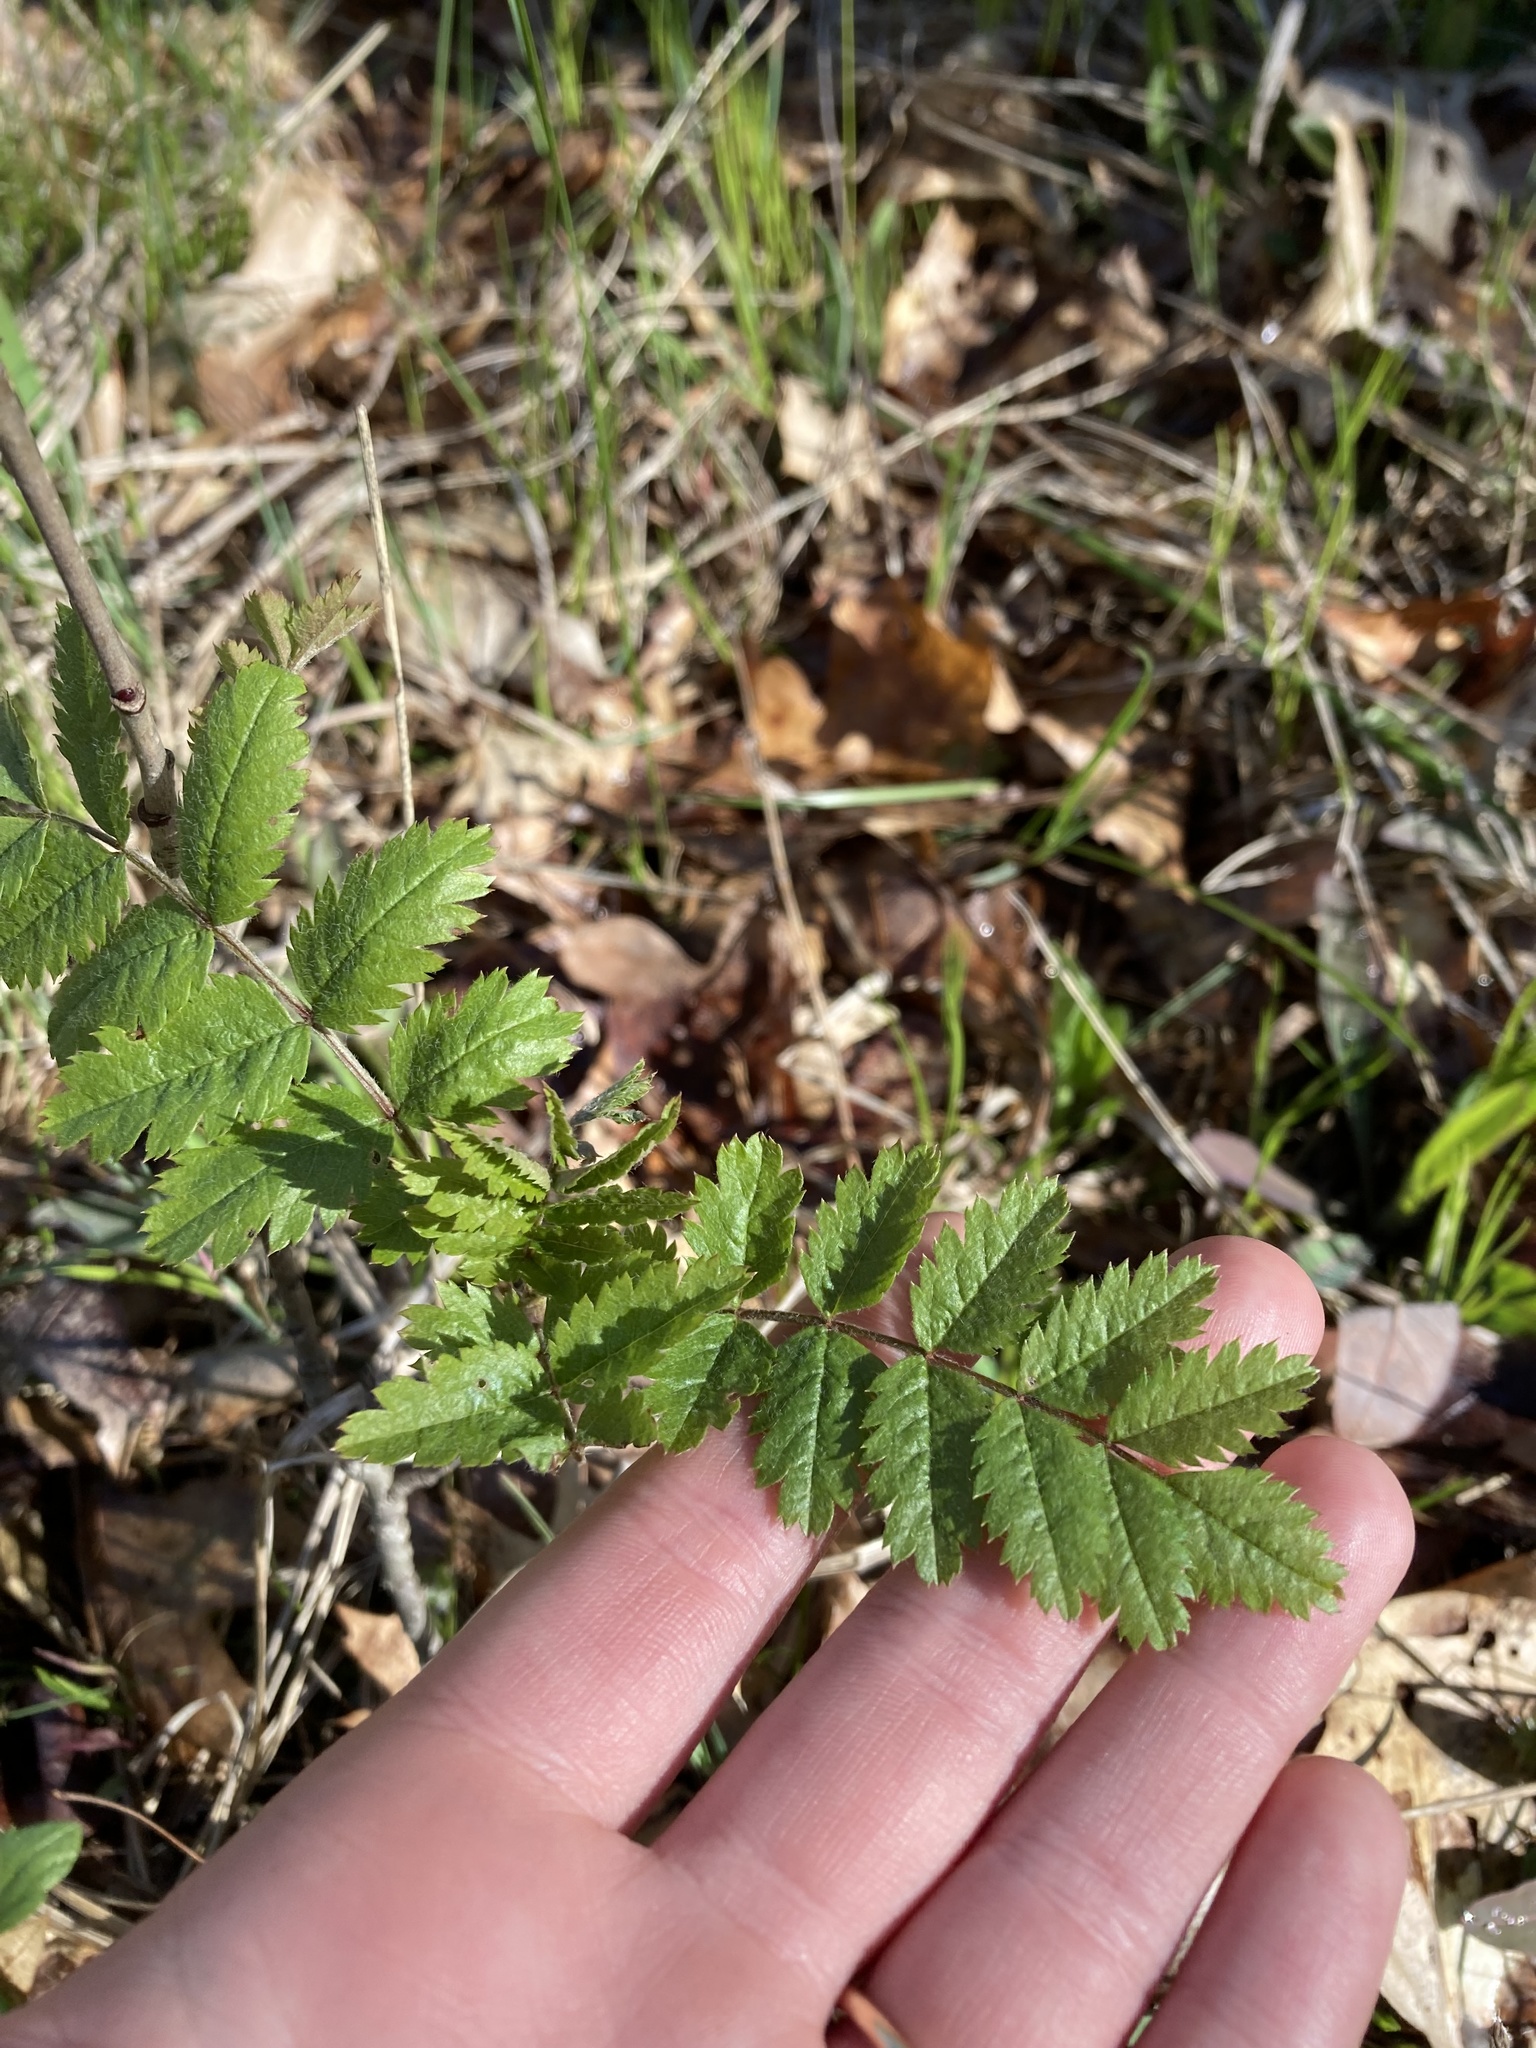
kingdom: Plantae
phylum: Tracheophyta
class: Magnoliopsida
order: Rosales
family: Rosaceae
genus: Sorbus
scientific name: Sorbus aucuparia
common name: Rowan
